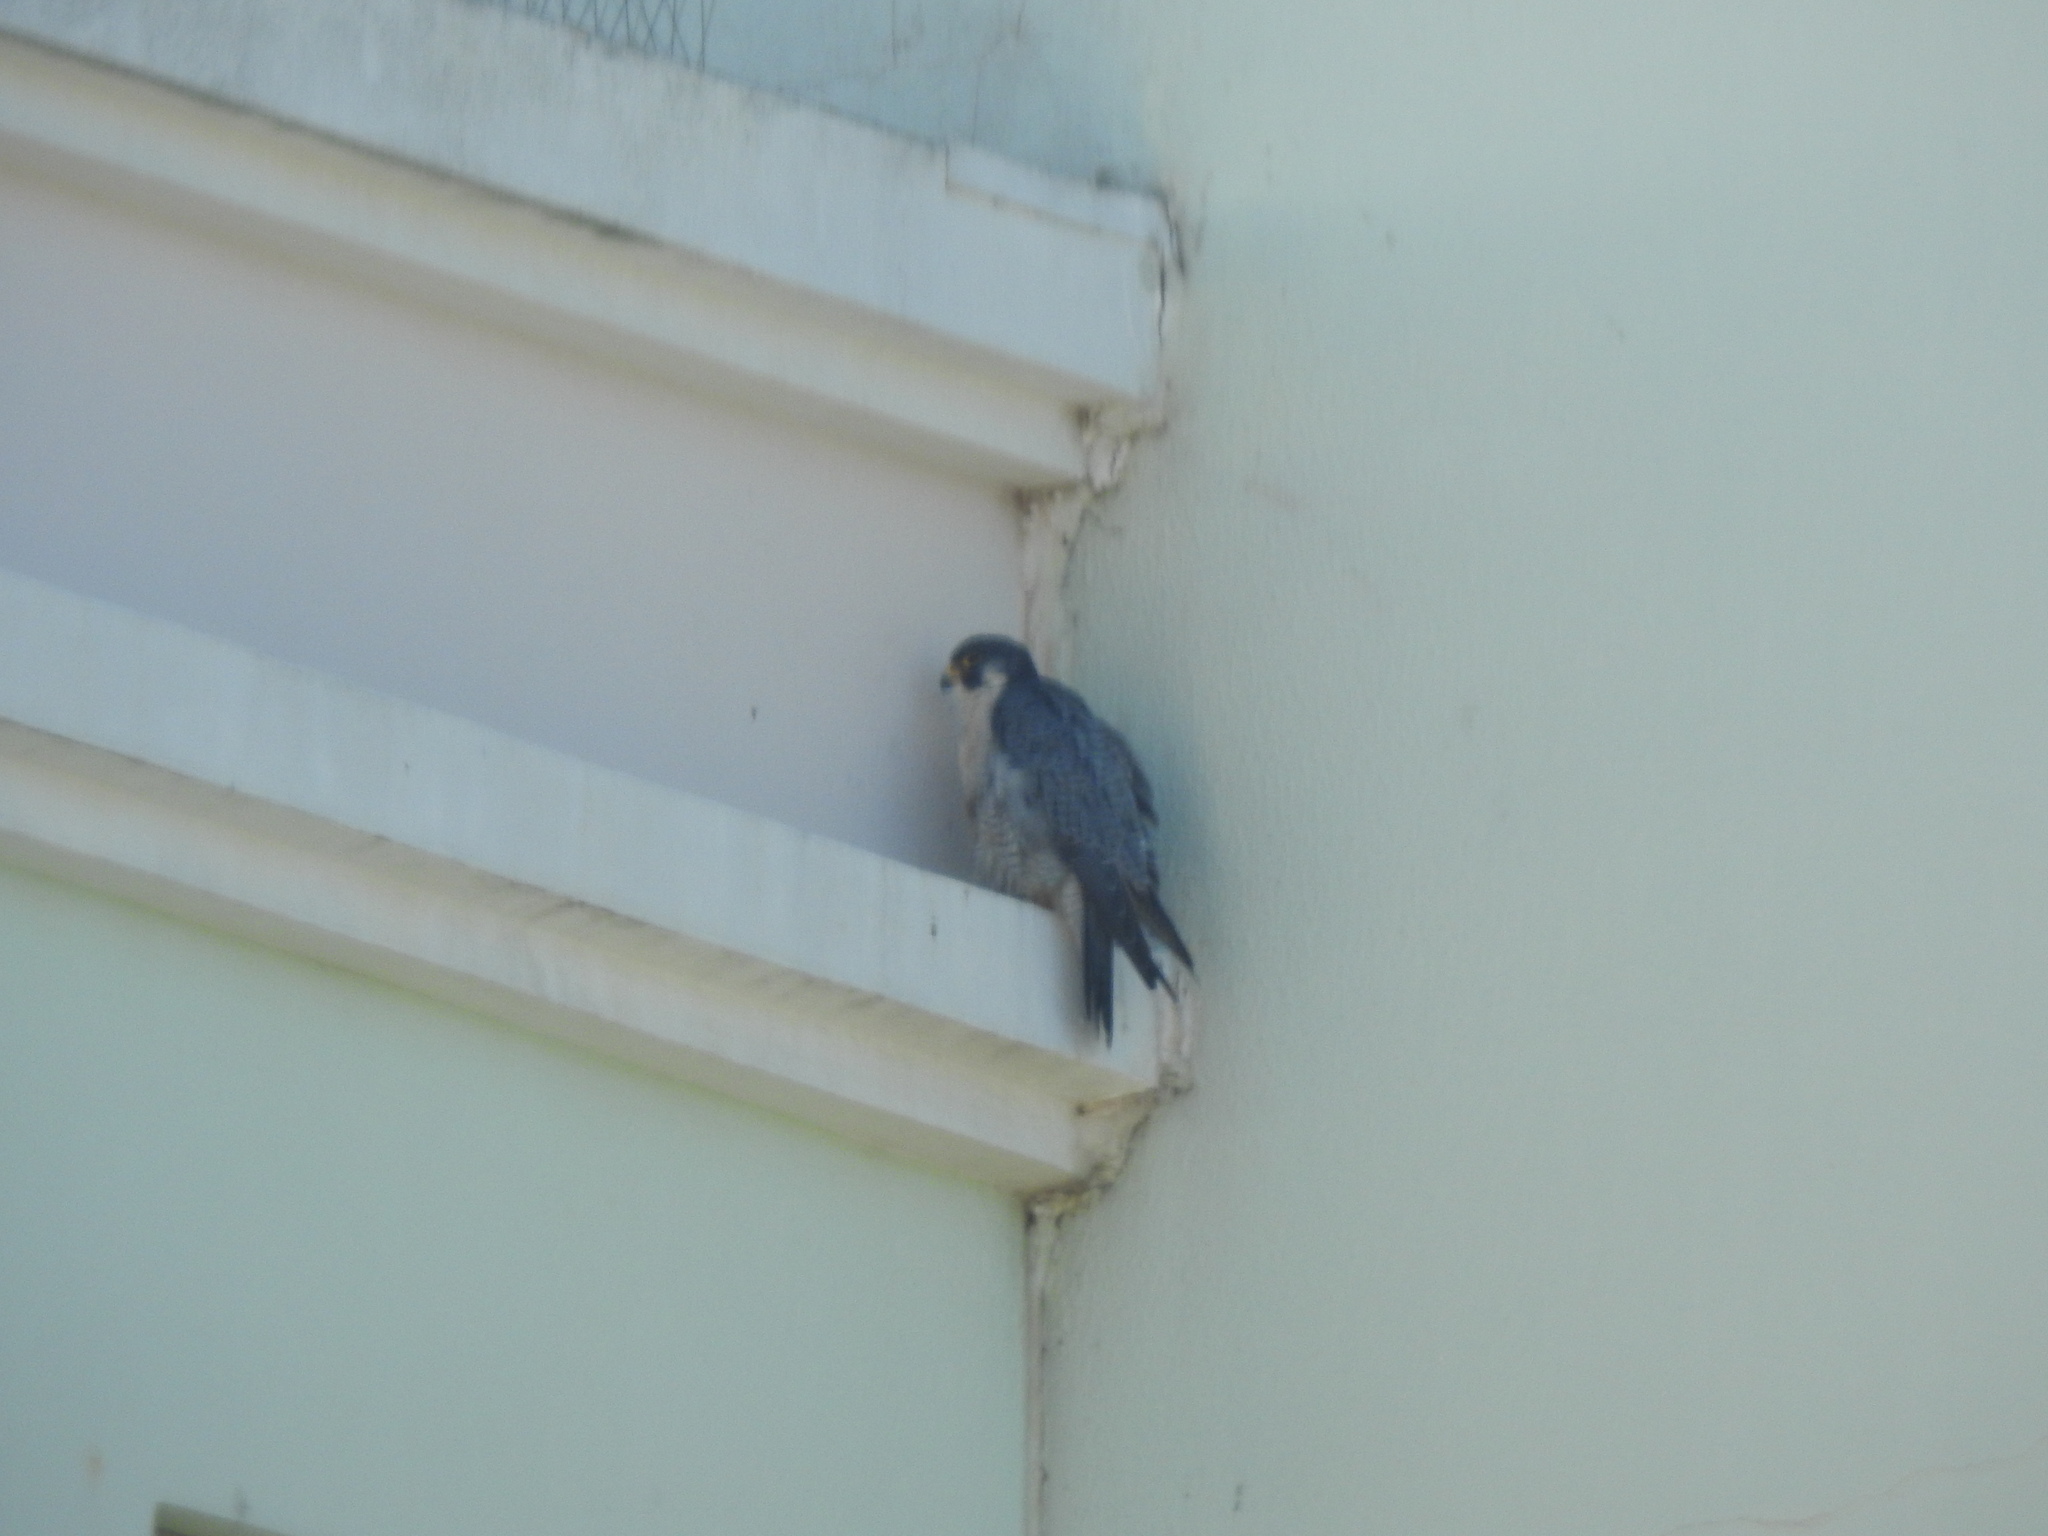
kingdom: Animalia
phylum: Chordata
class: Aves
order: Falconiformes
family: Falconidae
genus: Falco
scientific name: Falco peregrinus
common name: Peregrine falcon
